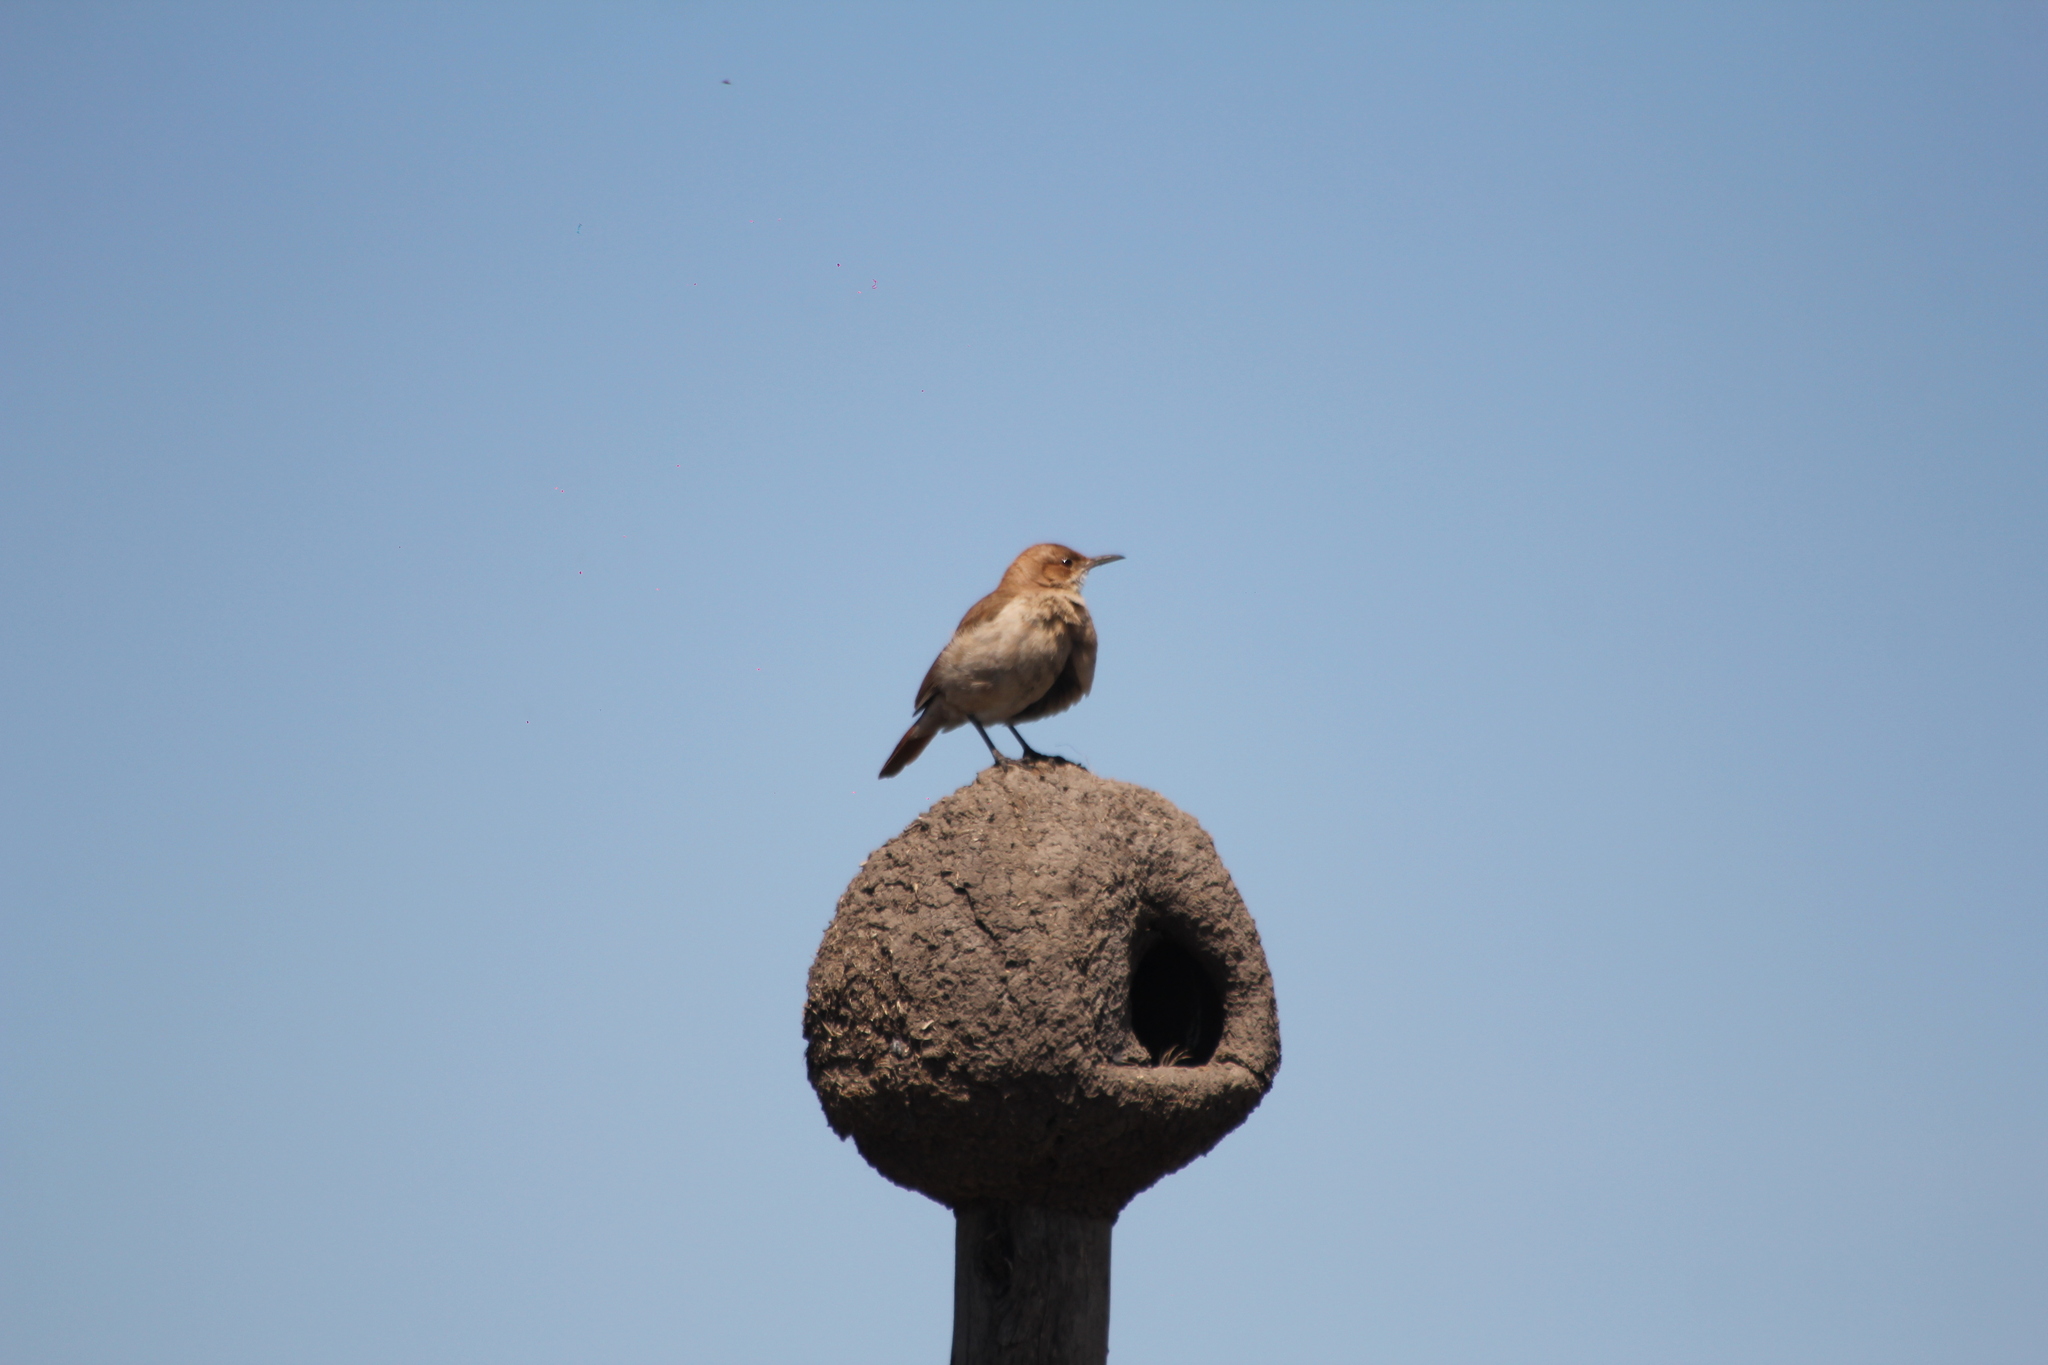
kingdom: Animalia
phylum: Chordata
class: Aves
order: Passeriformes
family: Furnariidae
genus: Furnarius
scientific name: Furnarius rufus
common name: Rufous hornero
